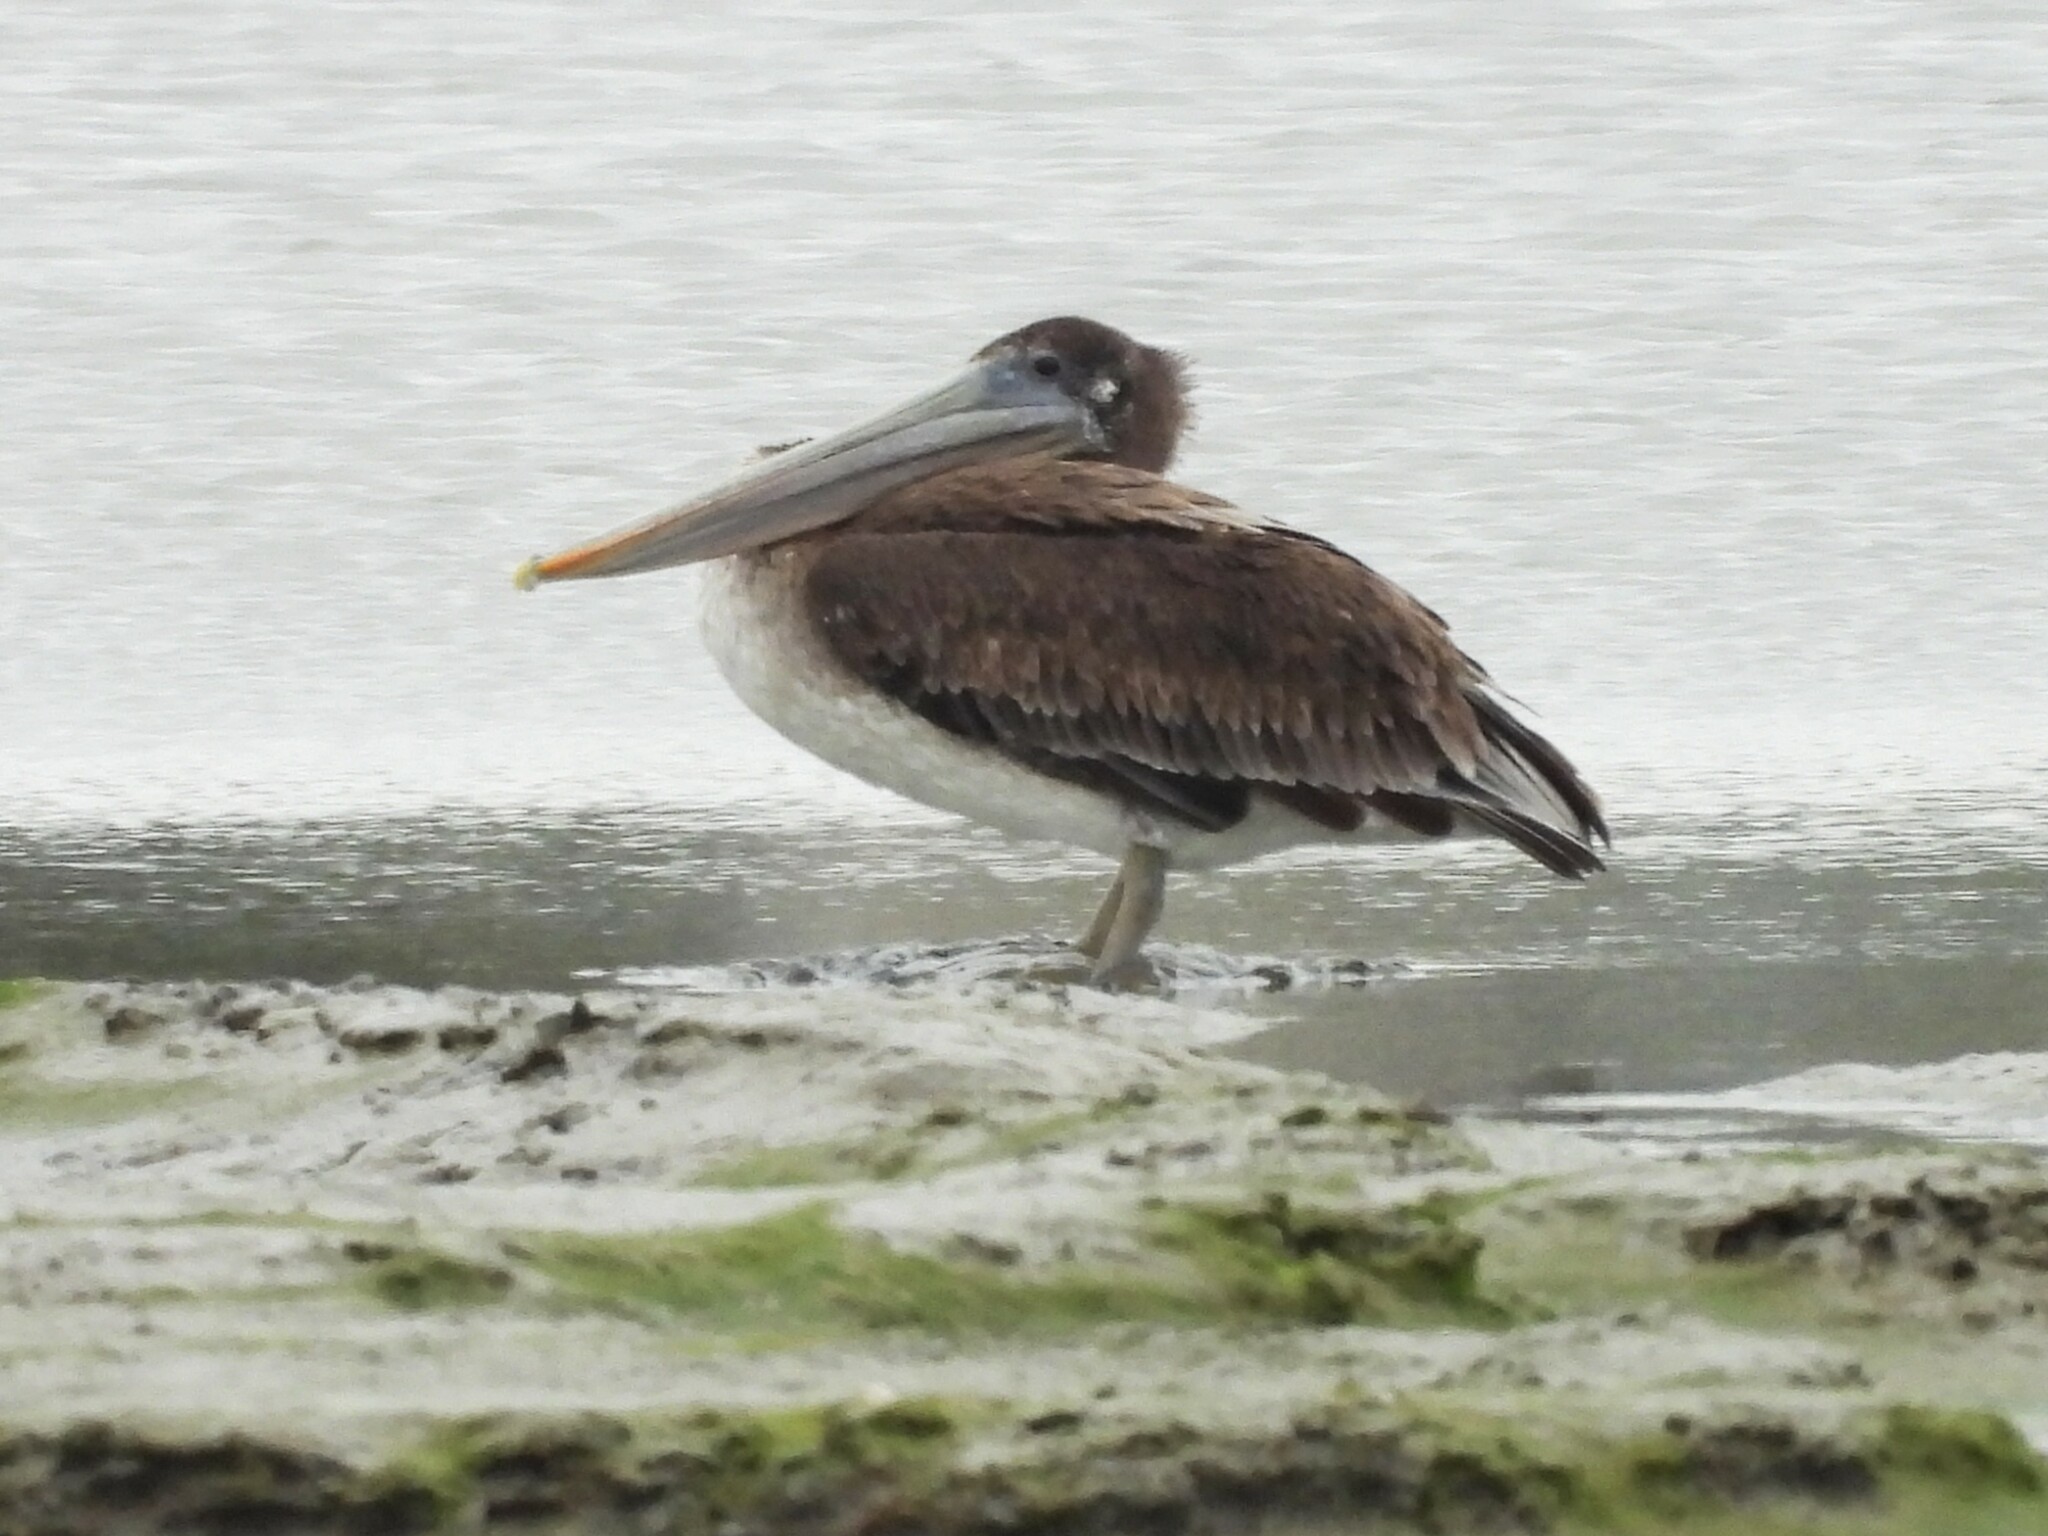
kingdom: Animalia
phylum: Chordata
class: Aves
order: Pelecaniformes
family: Pelecanidae
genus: Pelecanus
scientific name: Pelecanus occidentalis
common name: Brown pelican
